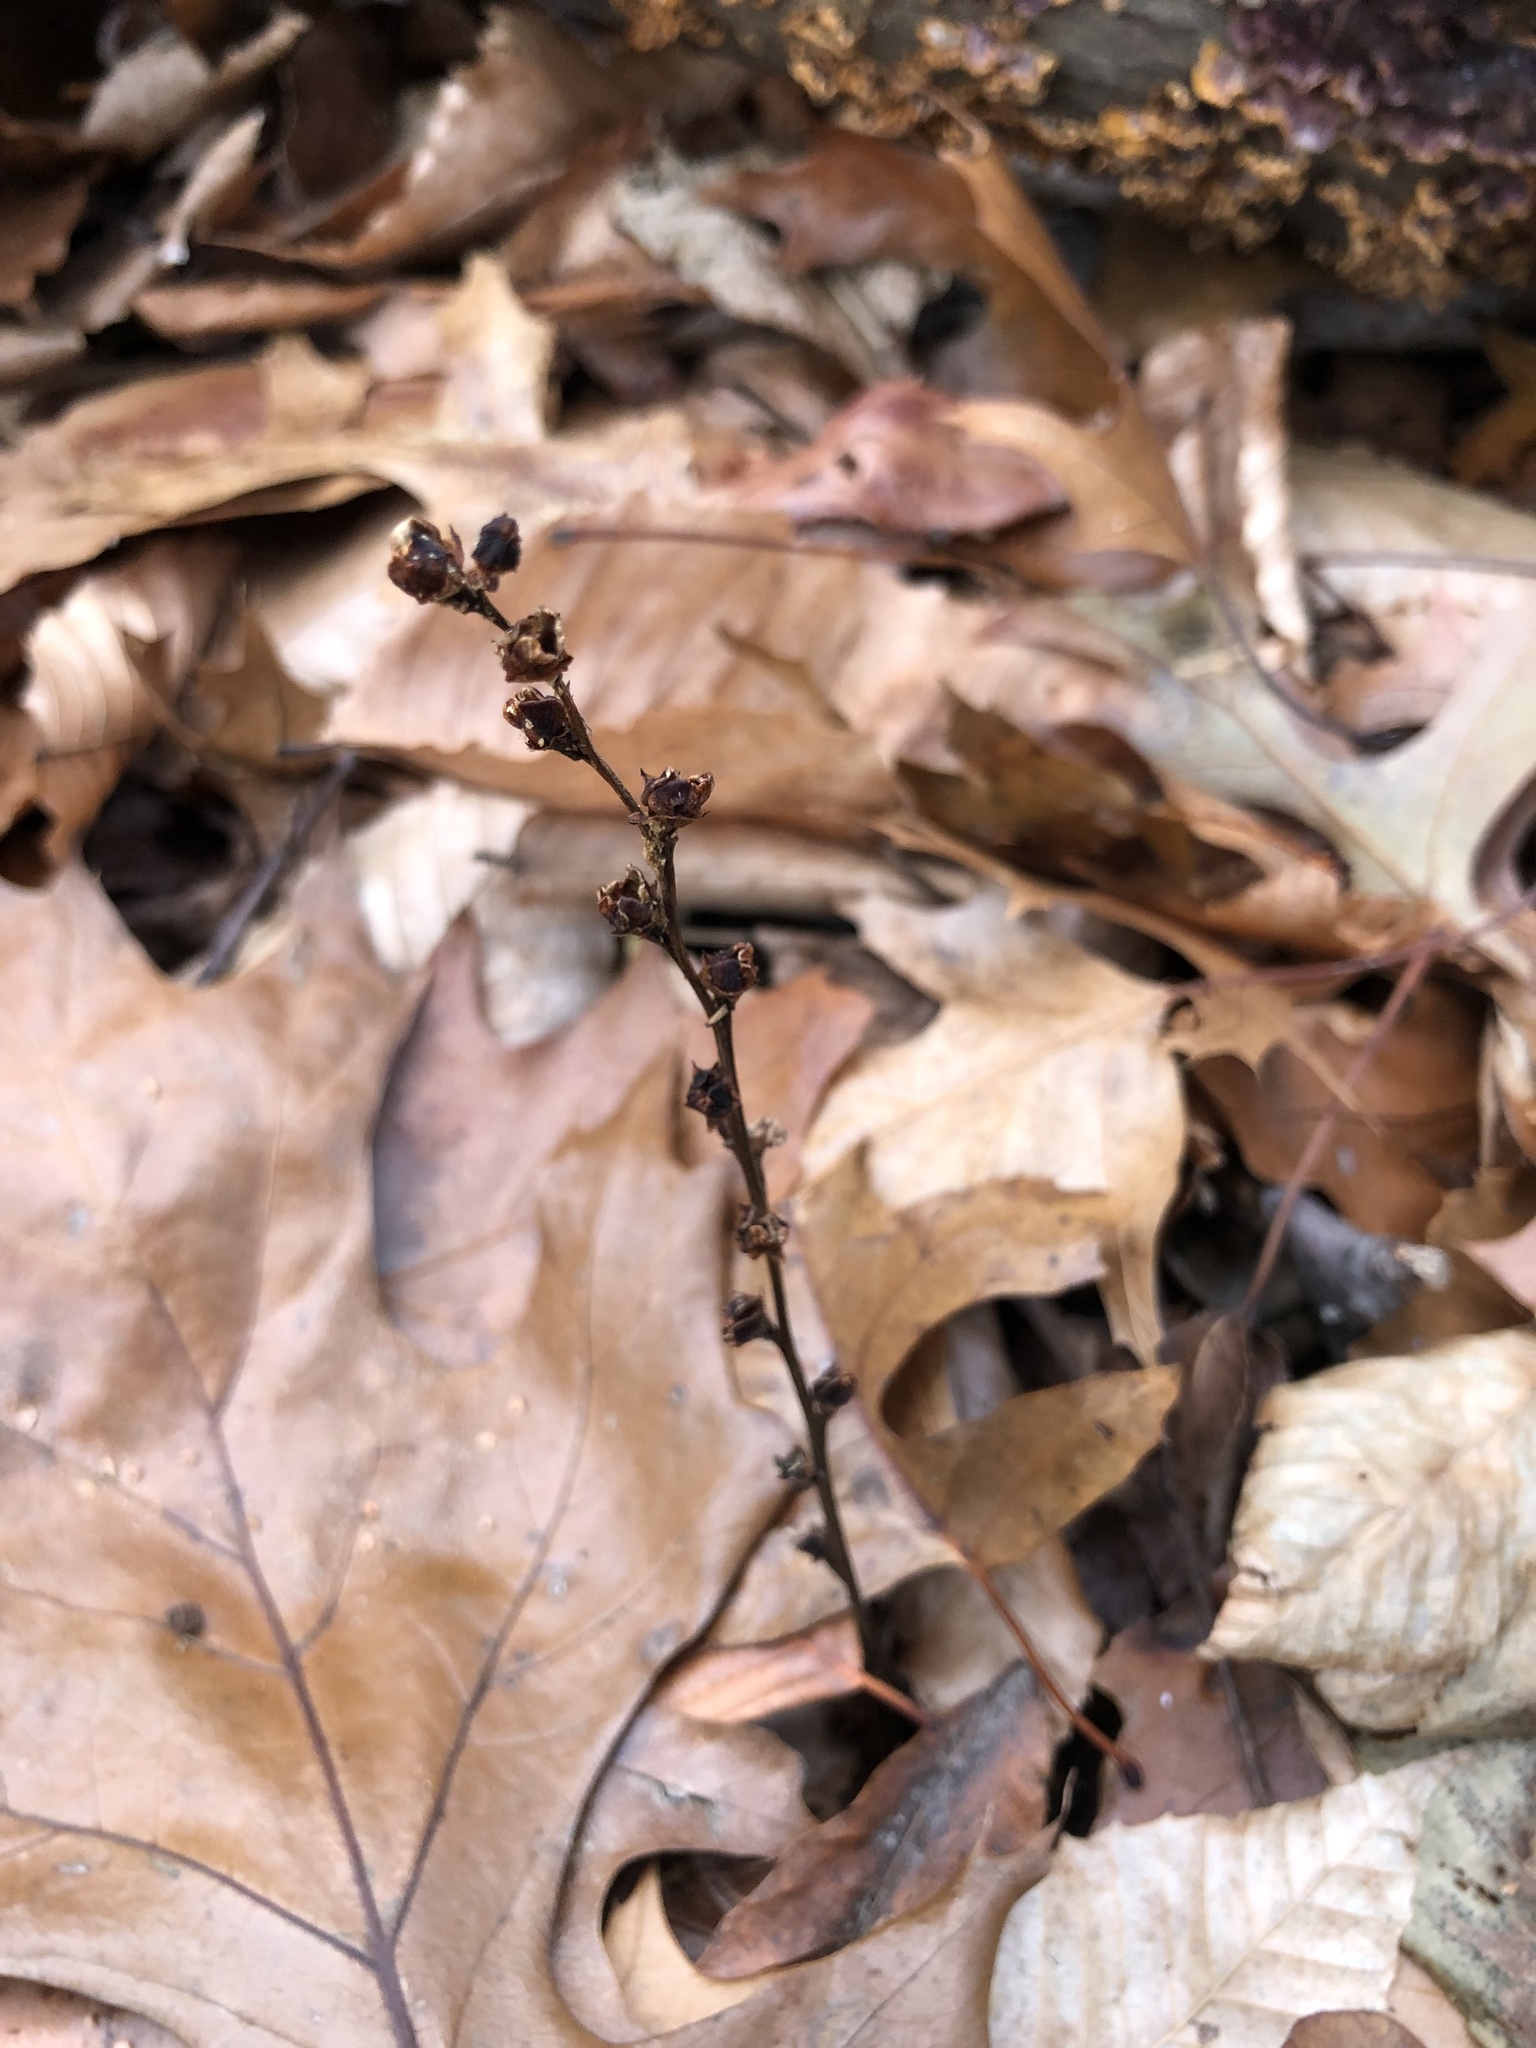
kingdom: Plantae
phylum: Tracheophyta
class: Magnoliopsida
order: Lamiales
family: Orobanchaceae
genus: Epifagus
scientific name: Epifagus virginiana
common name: Beechdrops
